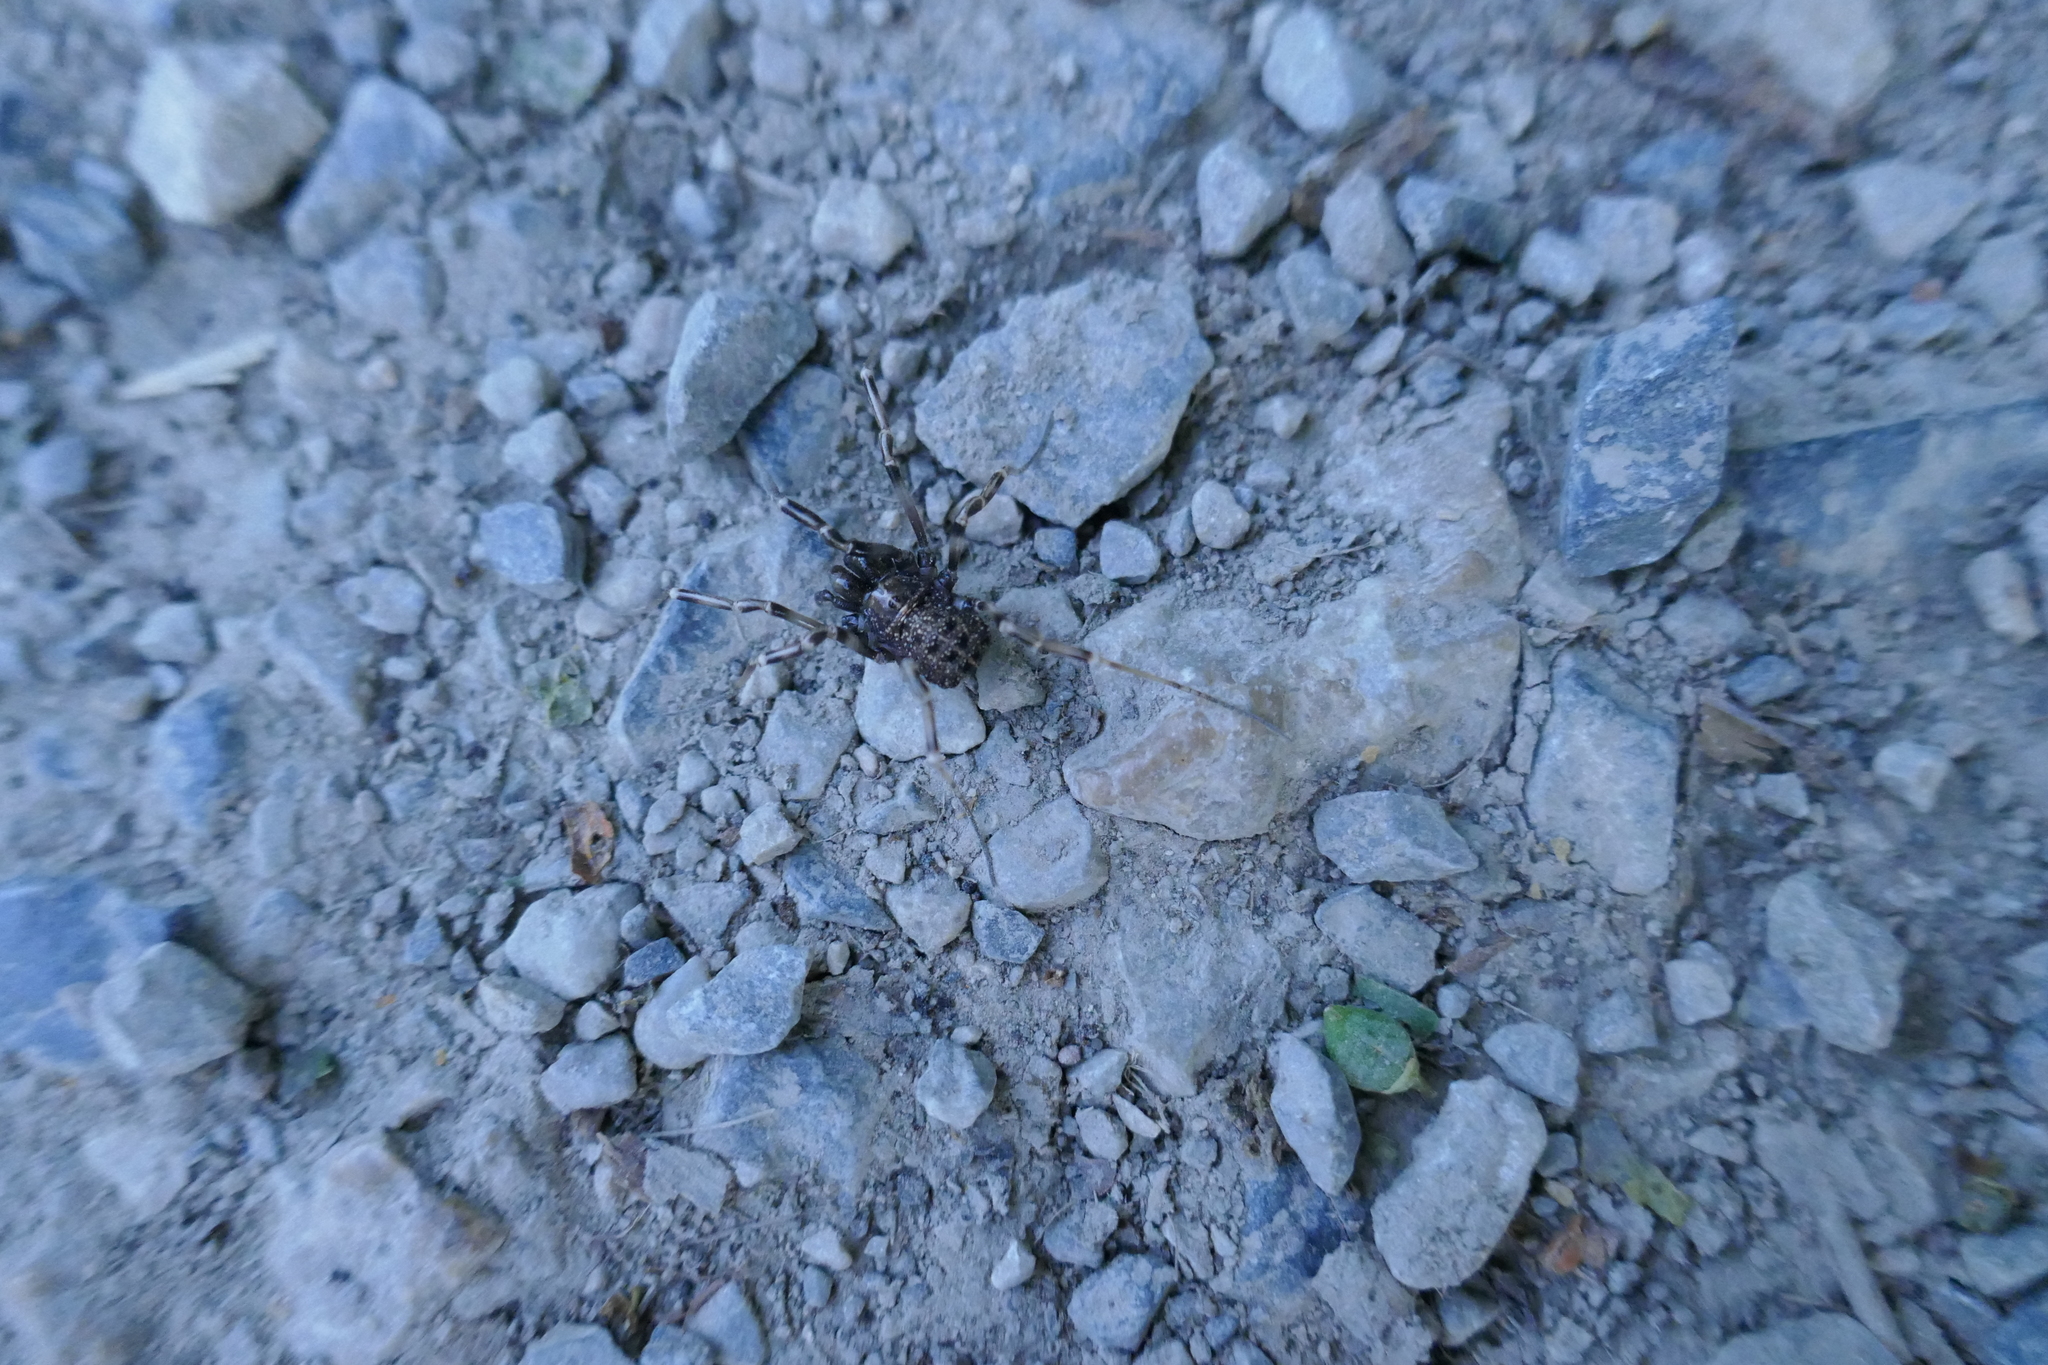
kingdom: Animalia
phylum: Arthropoda
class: Arachnida
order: Opiliones
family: Phalangiidae
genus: Egaenus
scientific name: Egaenus convexus
